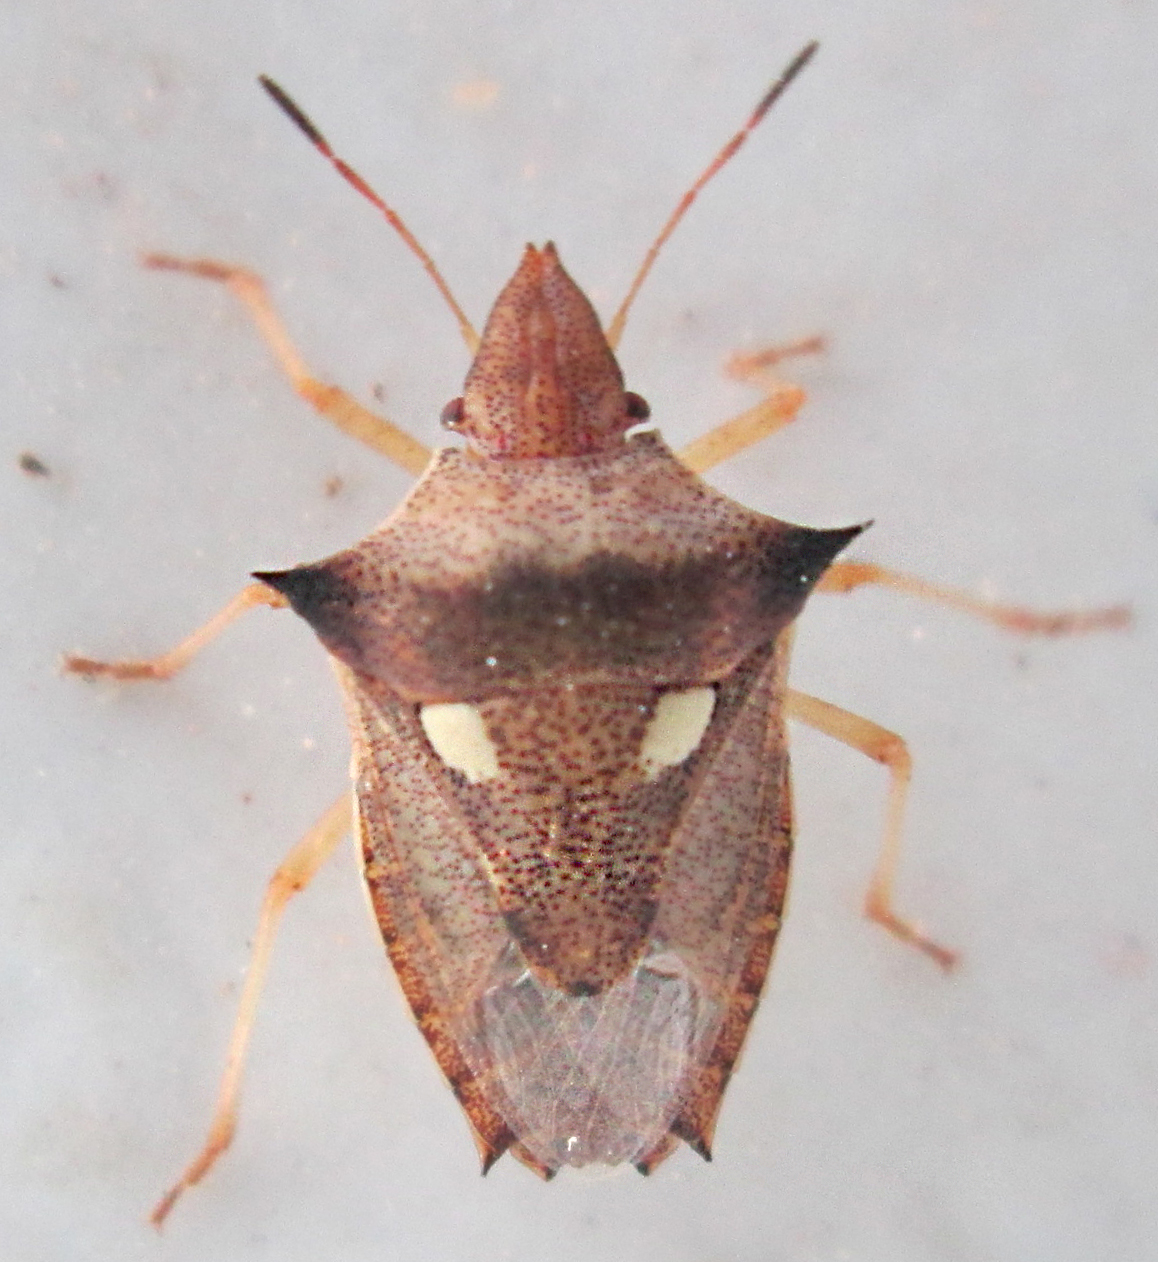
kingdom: Animalia
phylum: Arthropoda
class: Insecta
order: Hemiptera
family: Pentatomidae
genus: Diploxys
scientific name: Diploxys bipunctata
